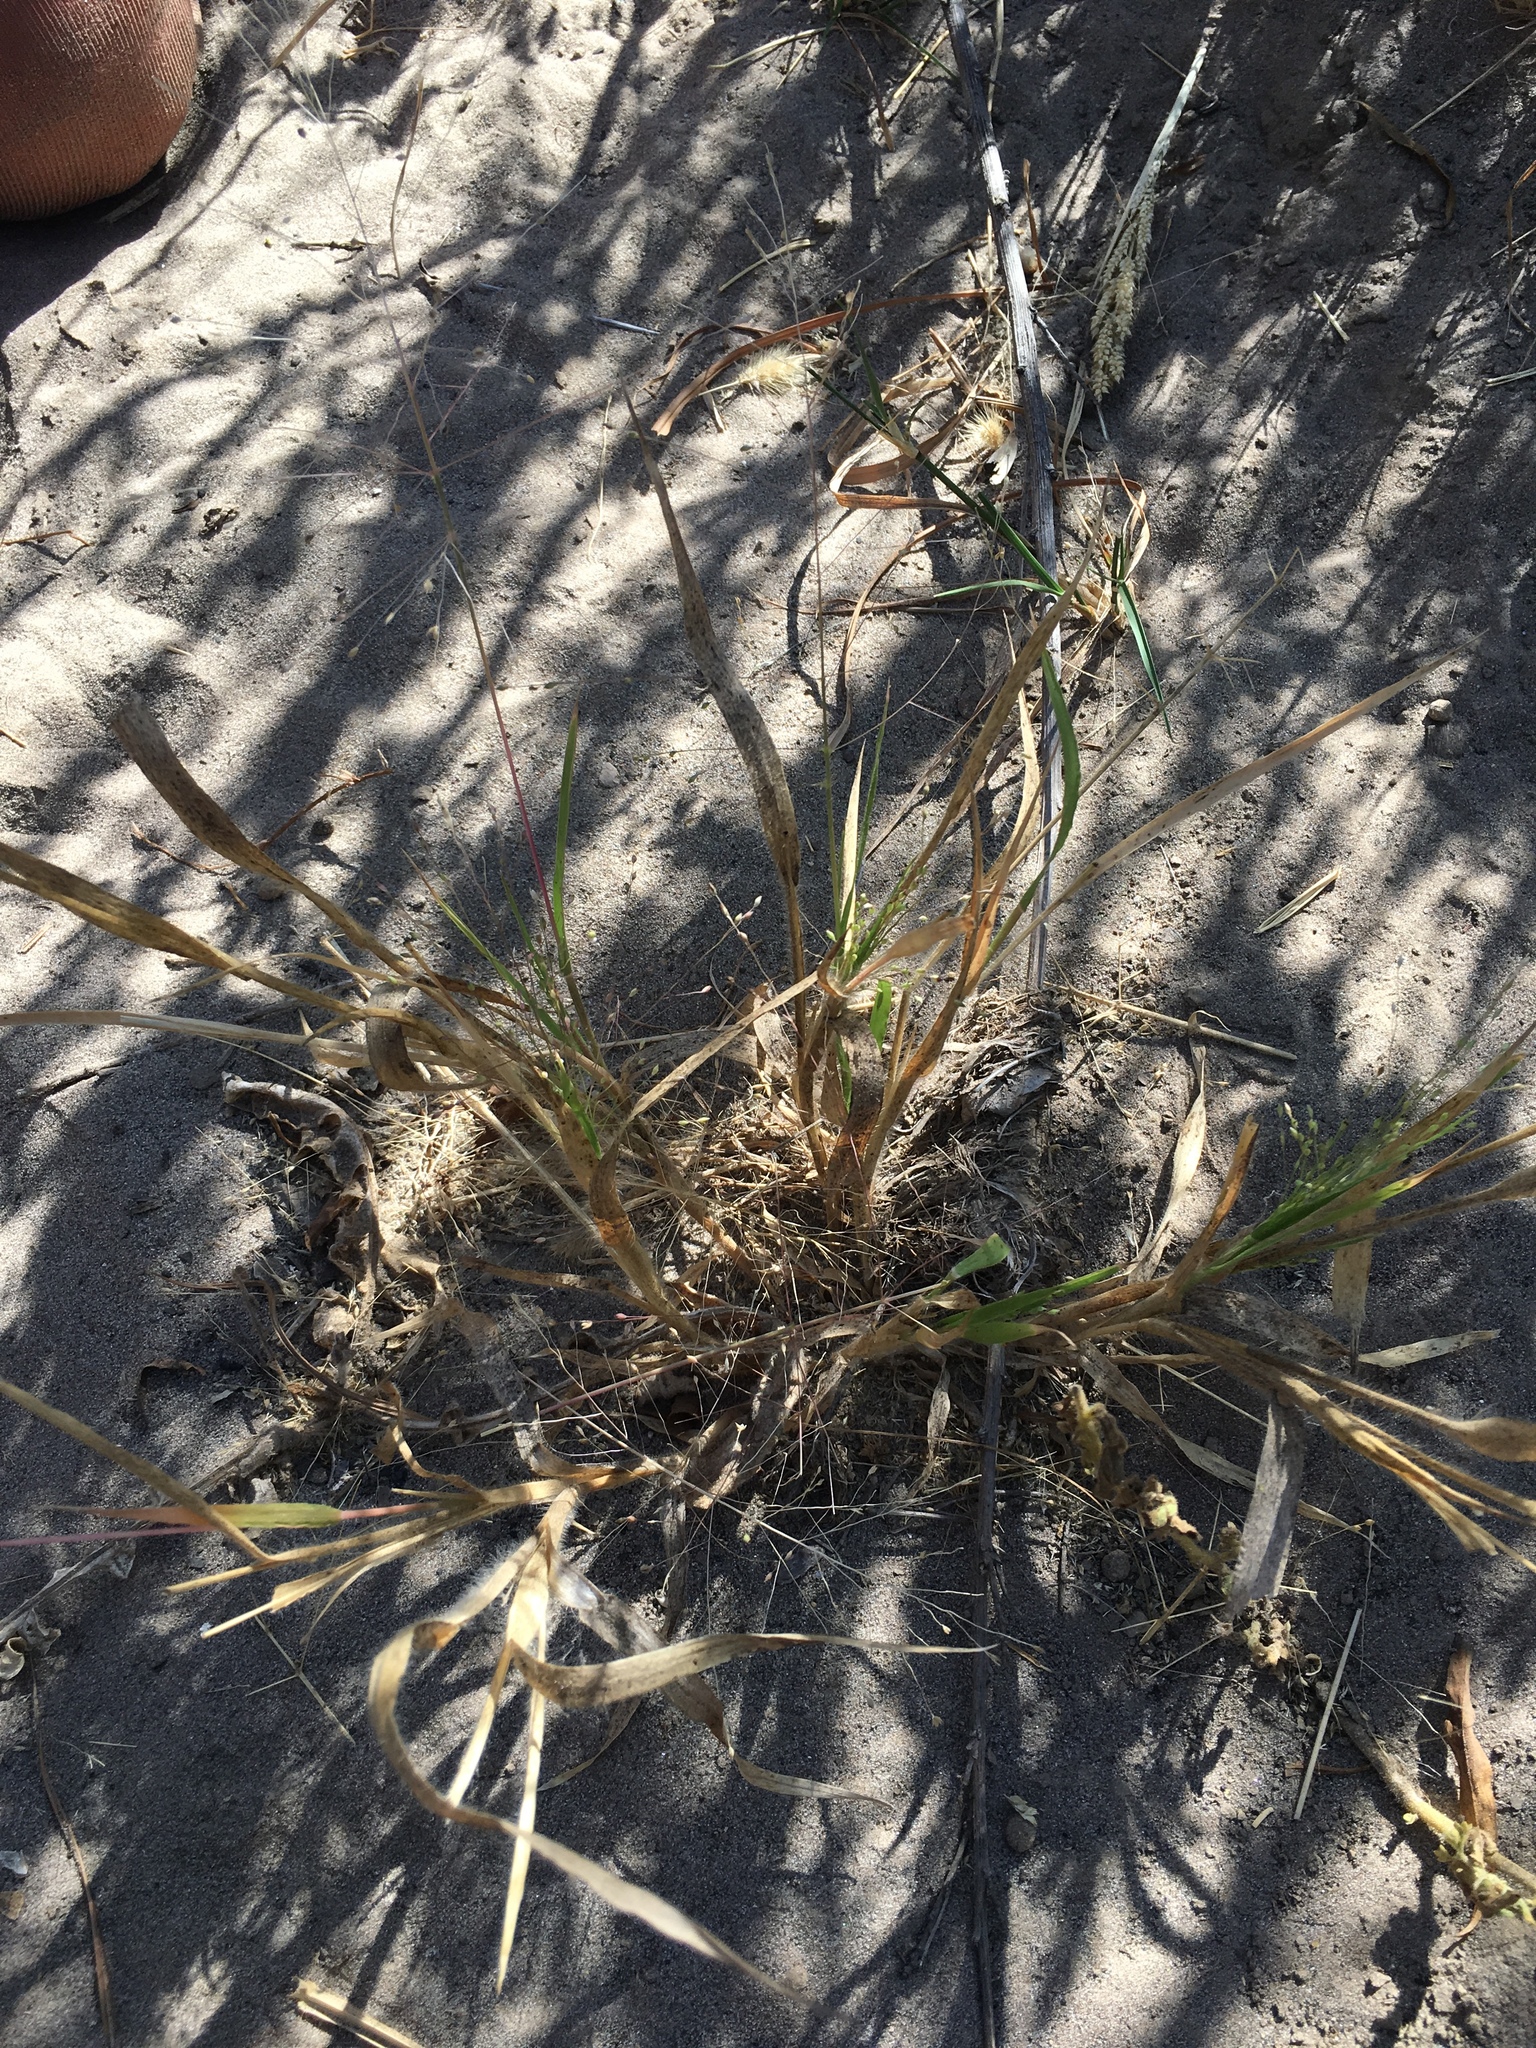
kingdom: Plantae
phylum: Tracheophyta
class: Liliopsida
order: Poales
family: Poaceae
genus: Panicum
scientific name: Panicum capillare
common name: Witch-grass
